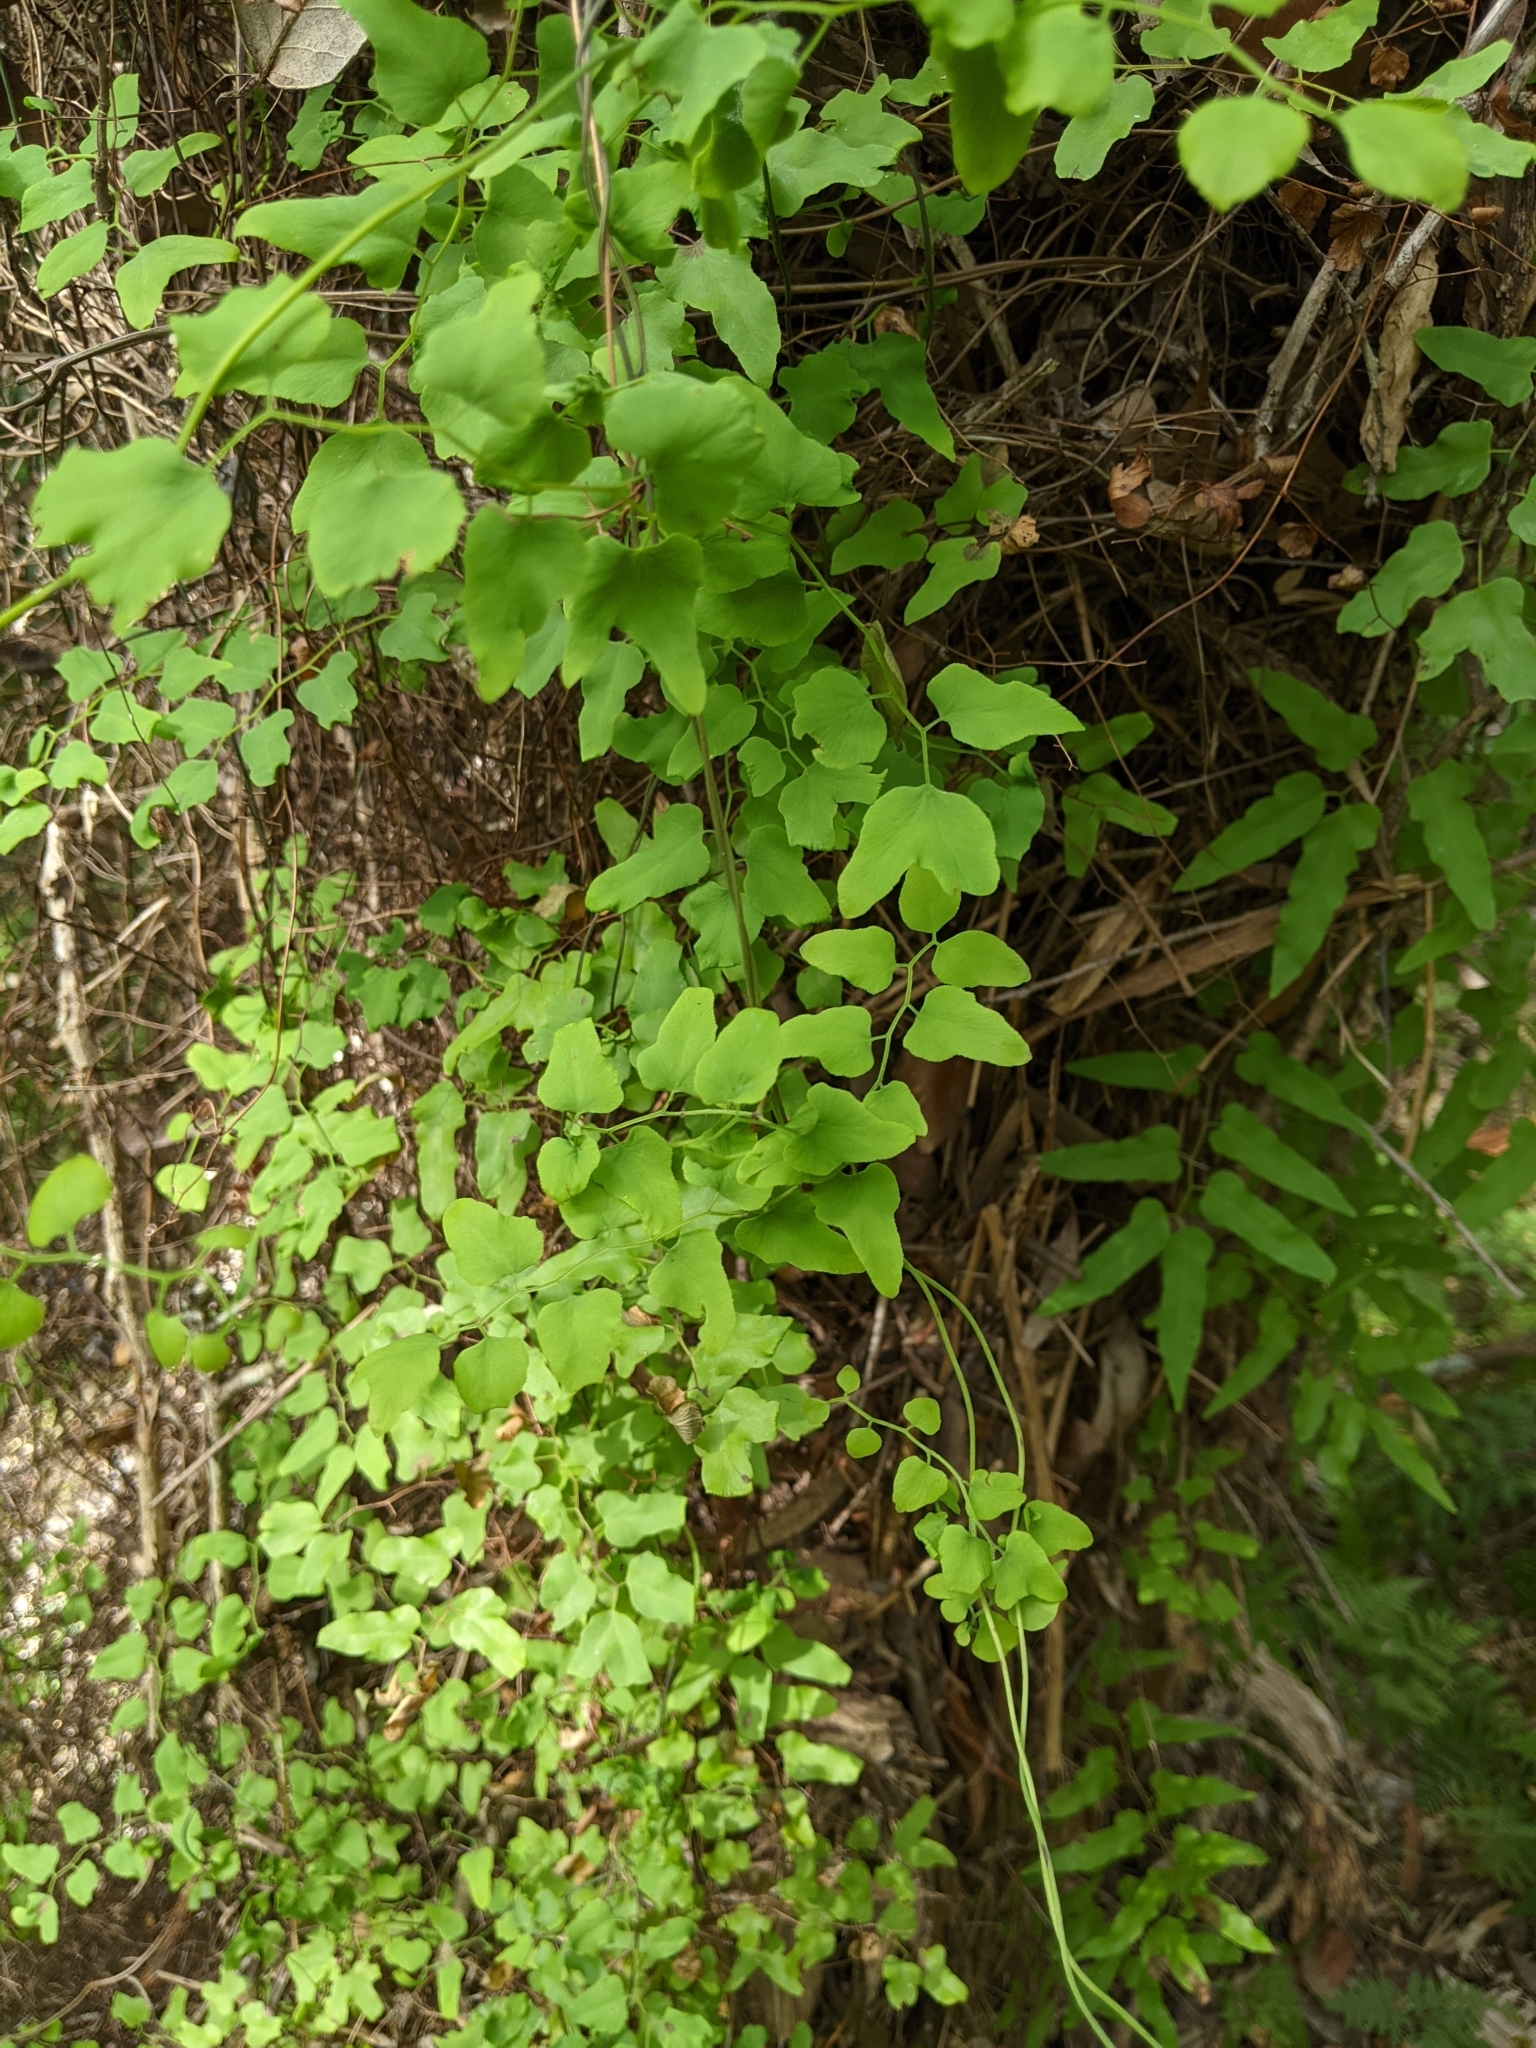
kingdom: Plantae
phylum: Tracheophyta
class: Polypodiopsida
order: Schizaeales
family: Lygodiaceae
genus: Lygodium
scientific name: Lygodium microphyllum
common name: Small-leaf climbing fern
